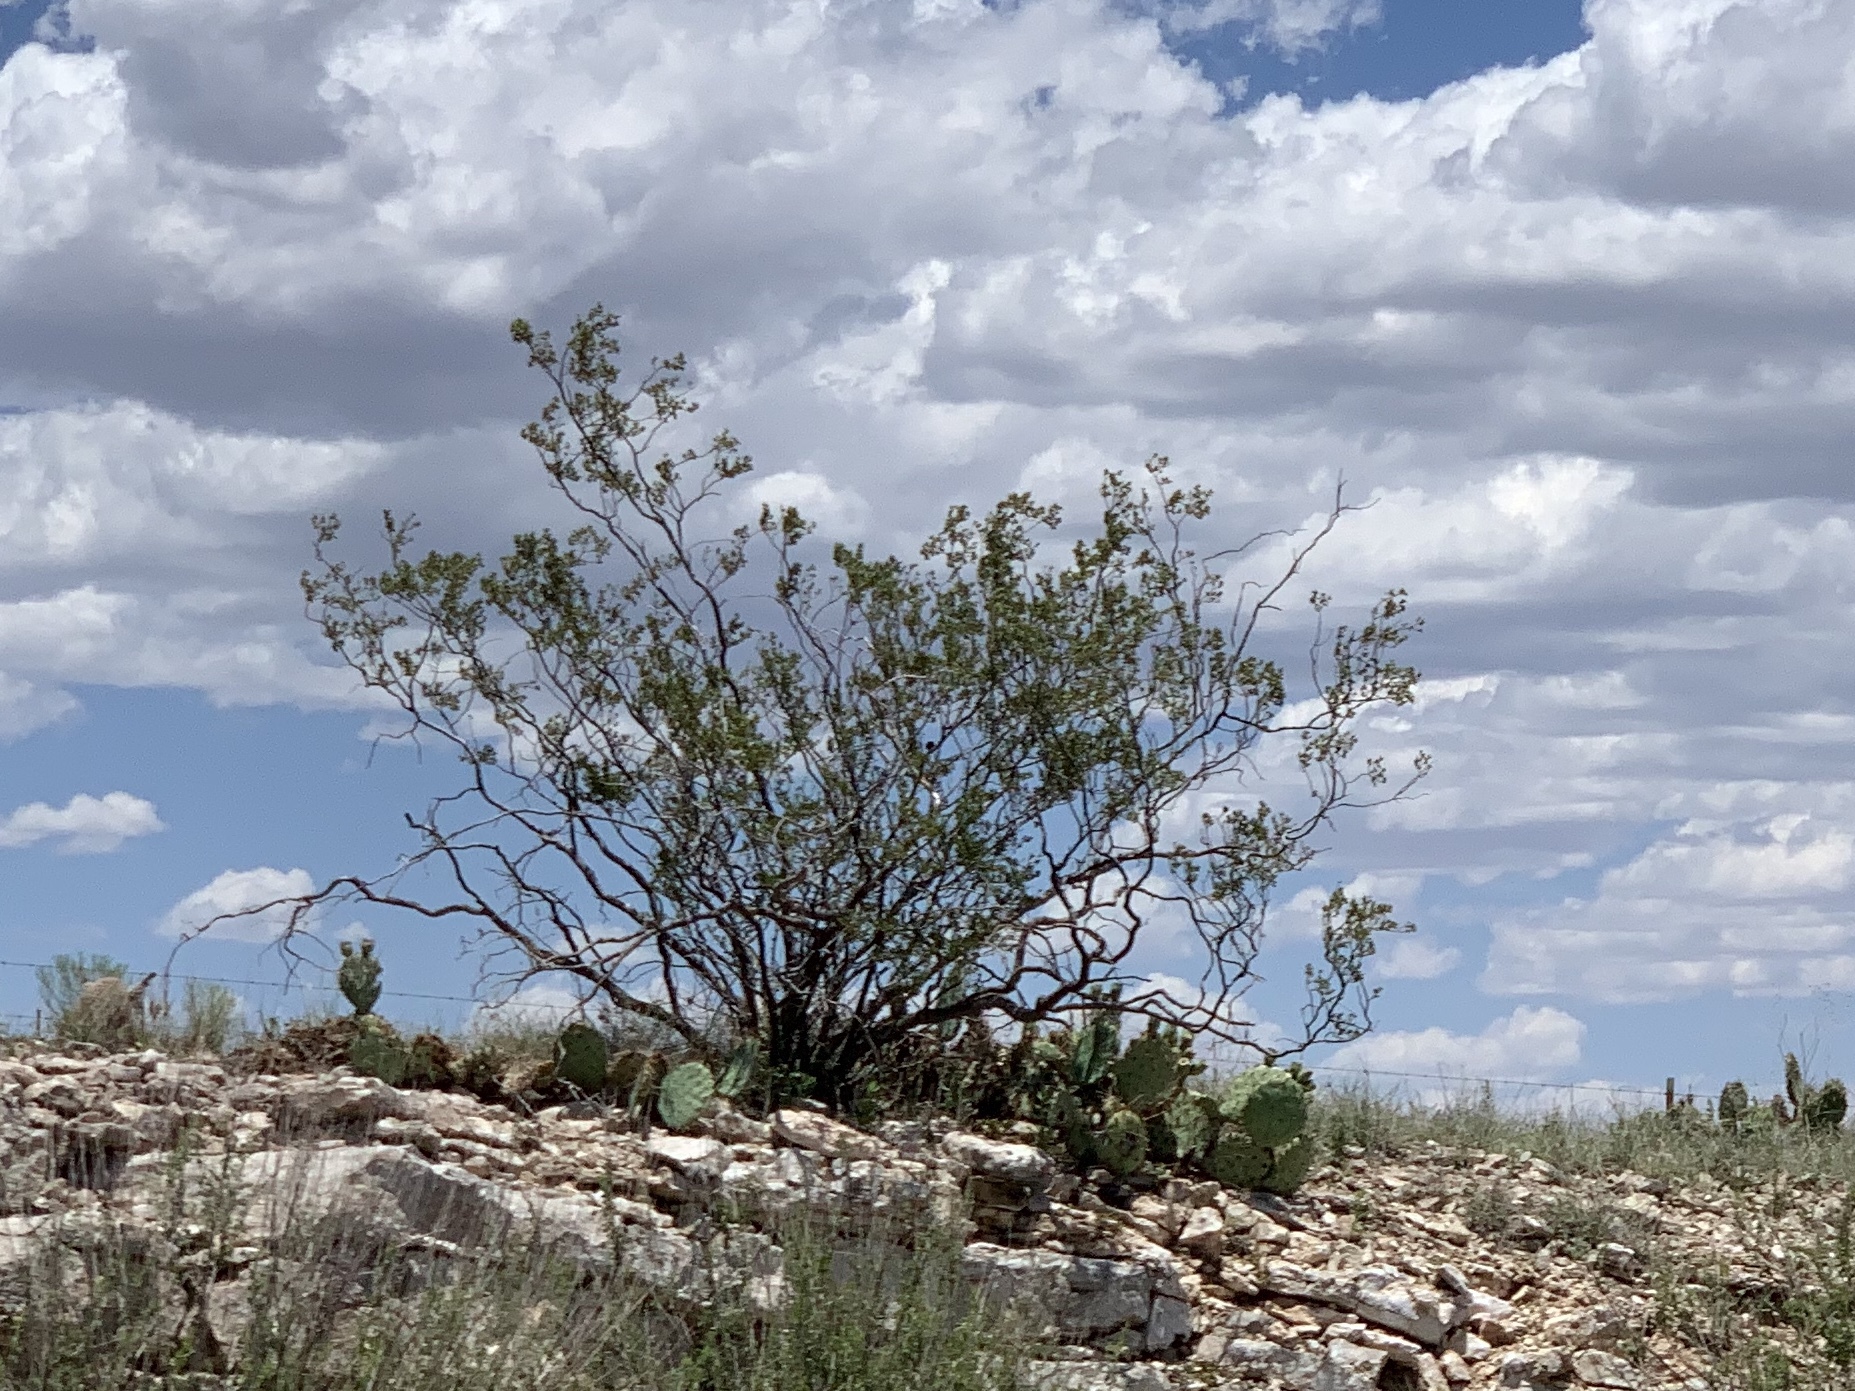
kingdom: Plantae
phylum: Tracheophyta
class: Magnoliopsida
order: Zygophyllales
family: Zygophyllaceae
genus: Larrea
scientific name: Larrea tridentata
